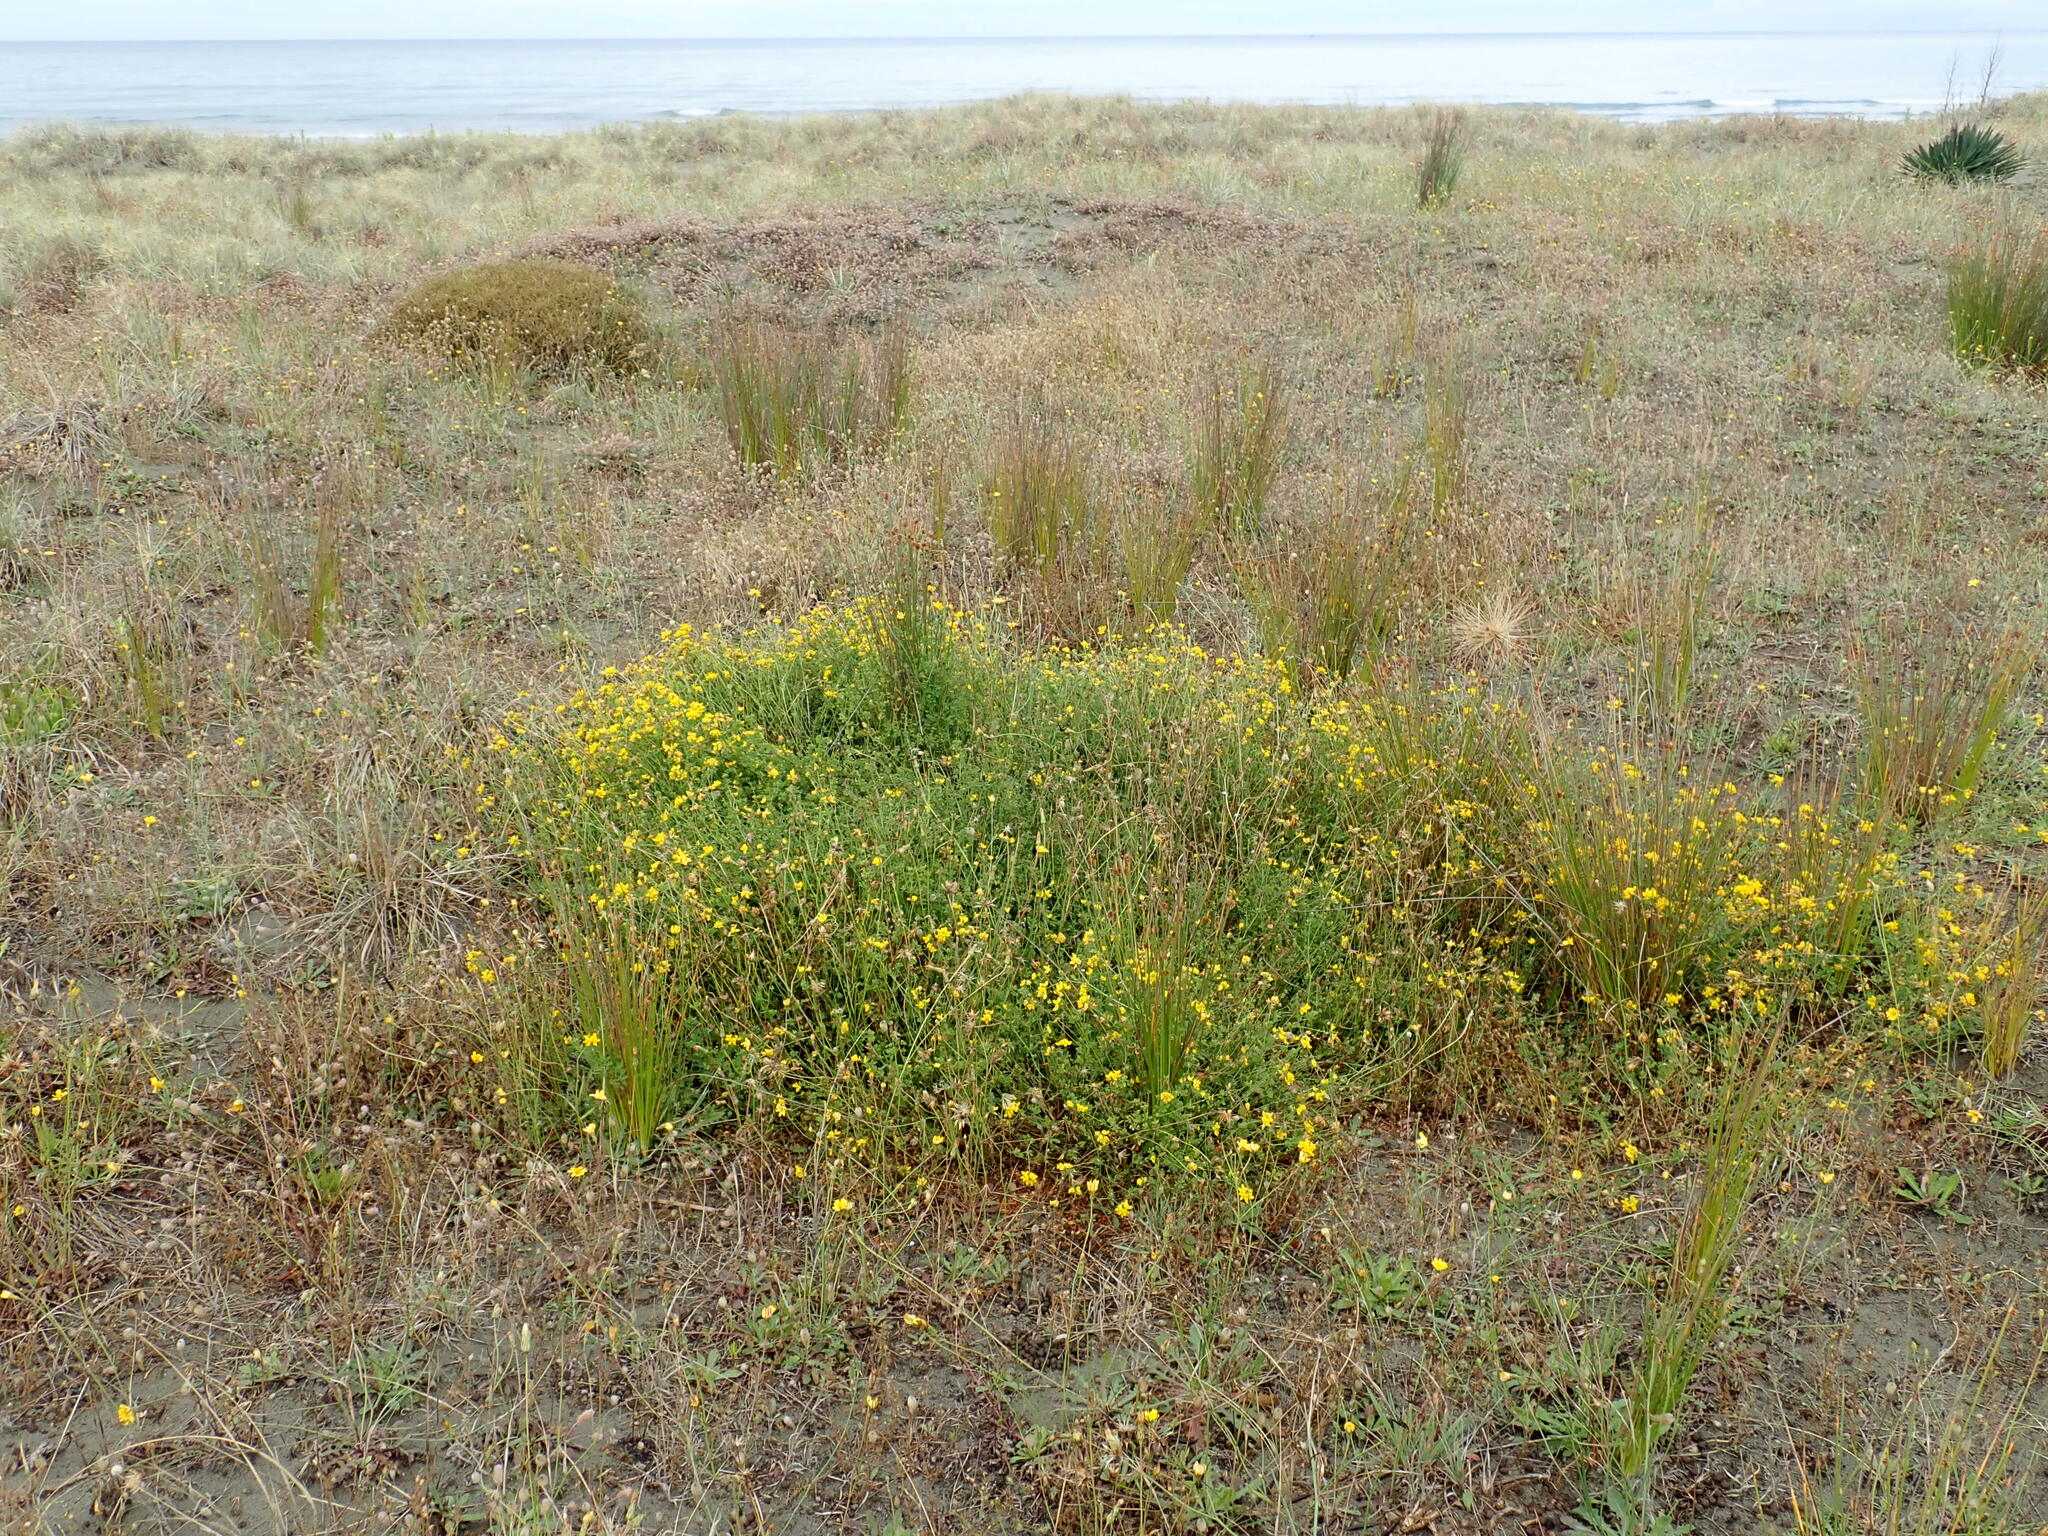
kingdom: Plantae
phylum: Tracheophyta
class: Magnoliopsida
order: Fabales
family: Fabaceae
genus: Lotus
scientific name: Lotus pedunculatus
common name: Greater birdsfoot-trefoil
